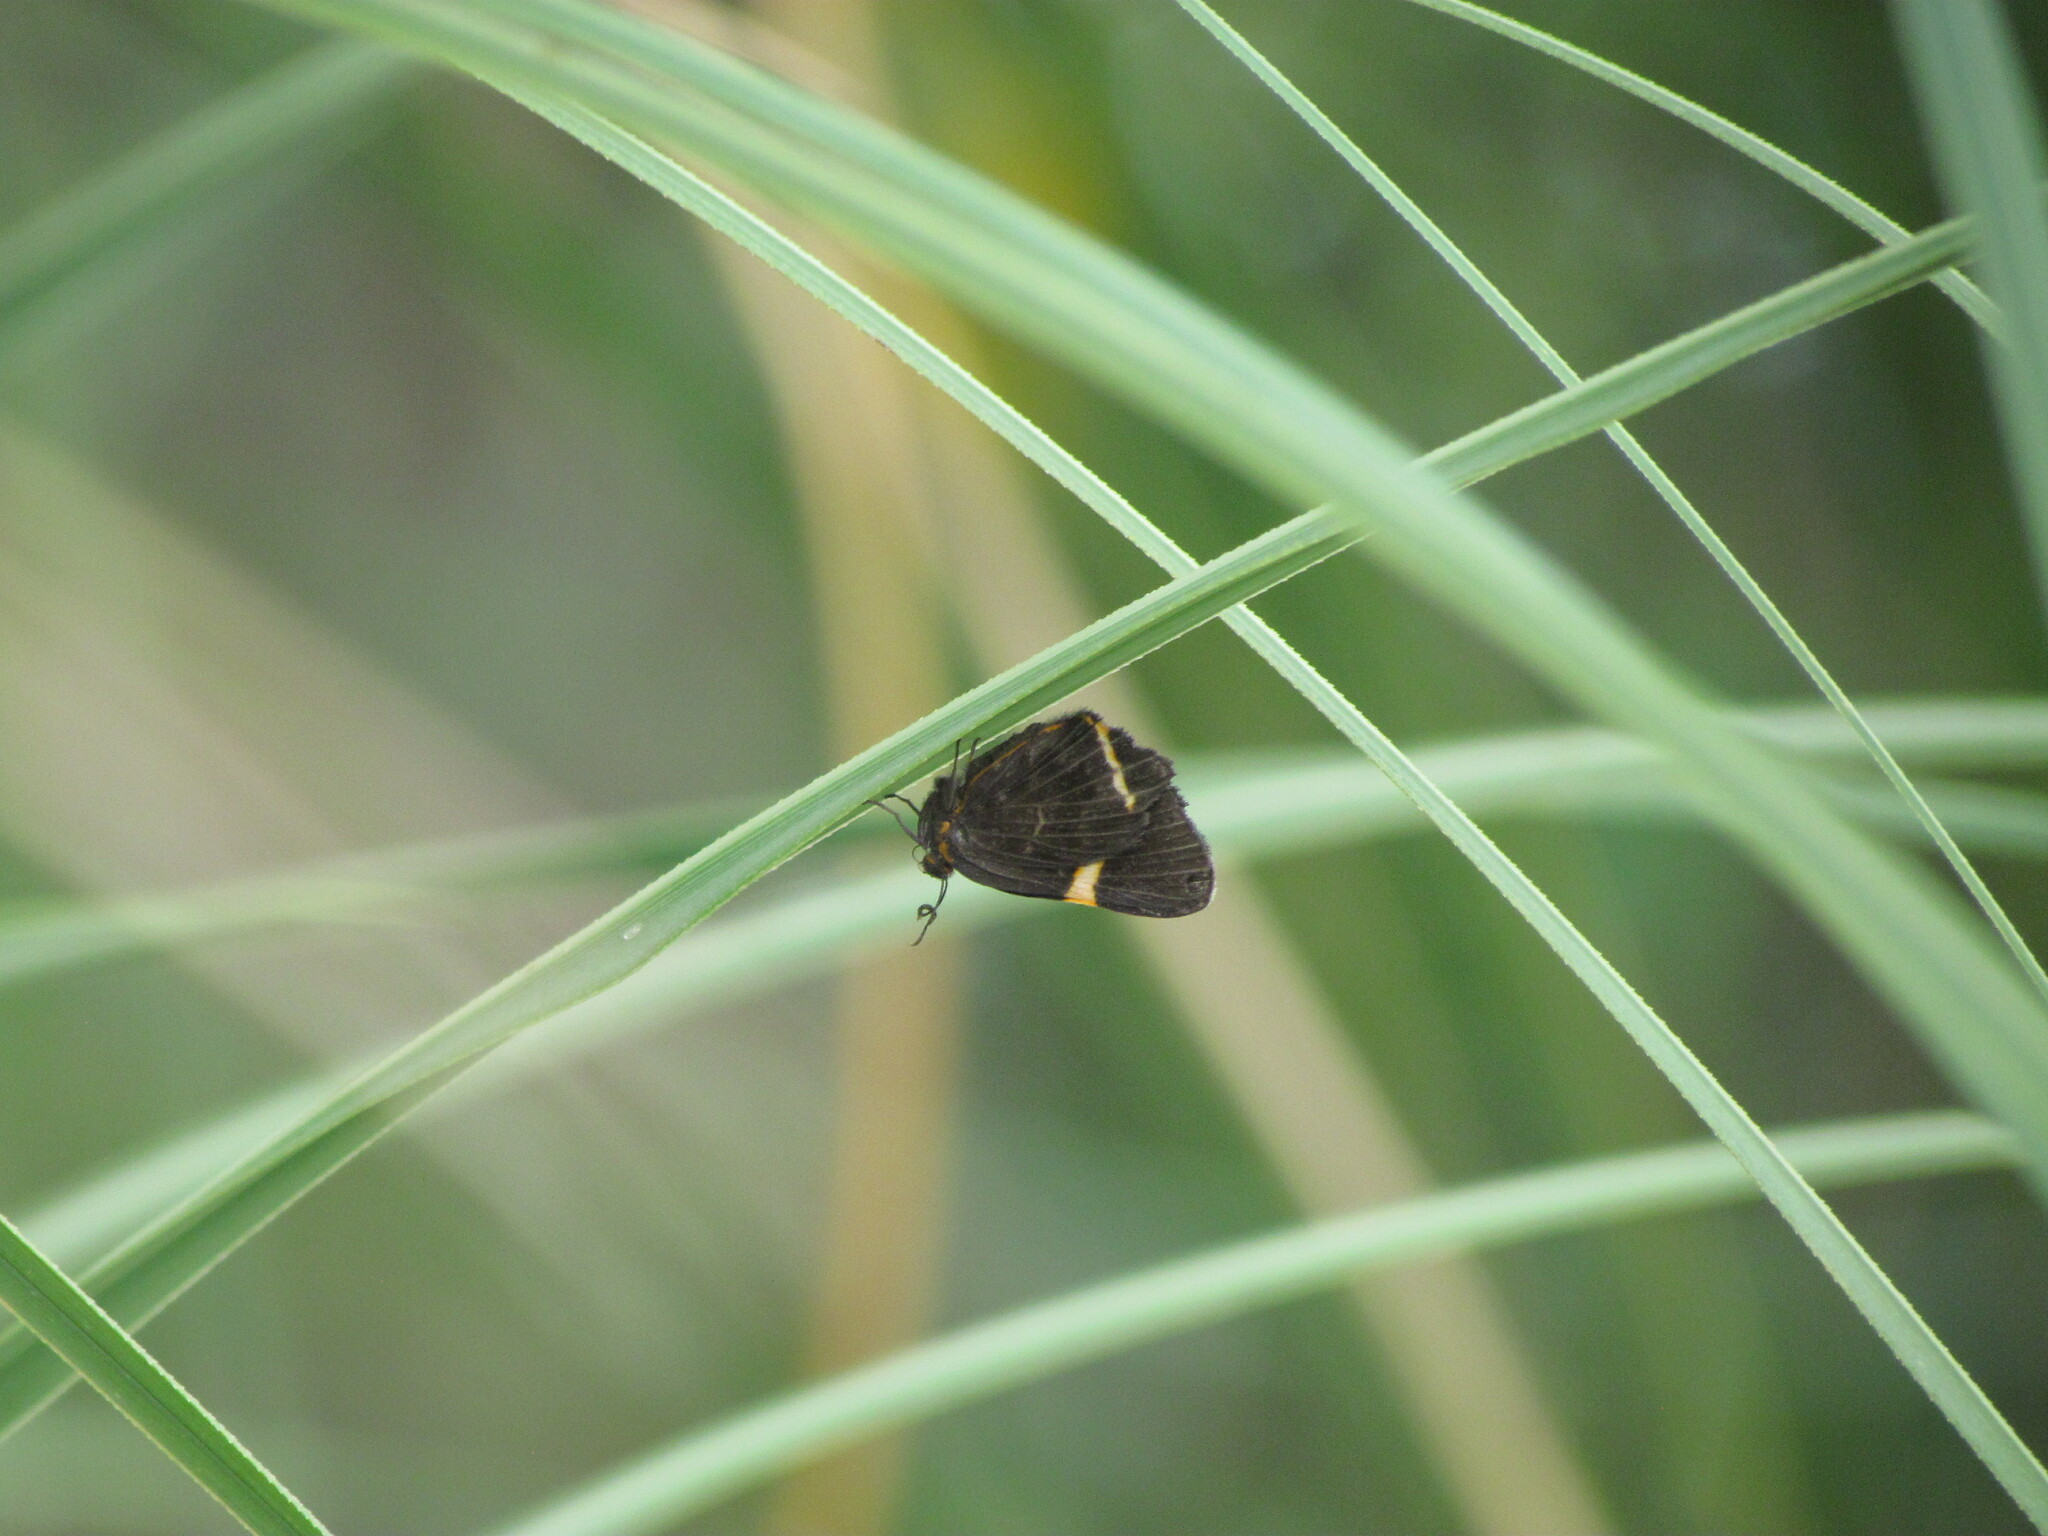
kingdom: Animalia
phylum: Arthropoda
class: Insecta
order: Lepidoptera
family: Riodinidae
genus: Riodina
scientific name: Riodina lysippoides
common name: Little dancer metalmark
